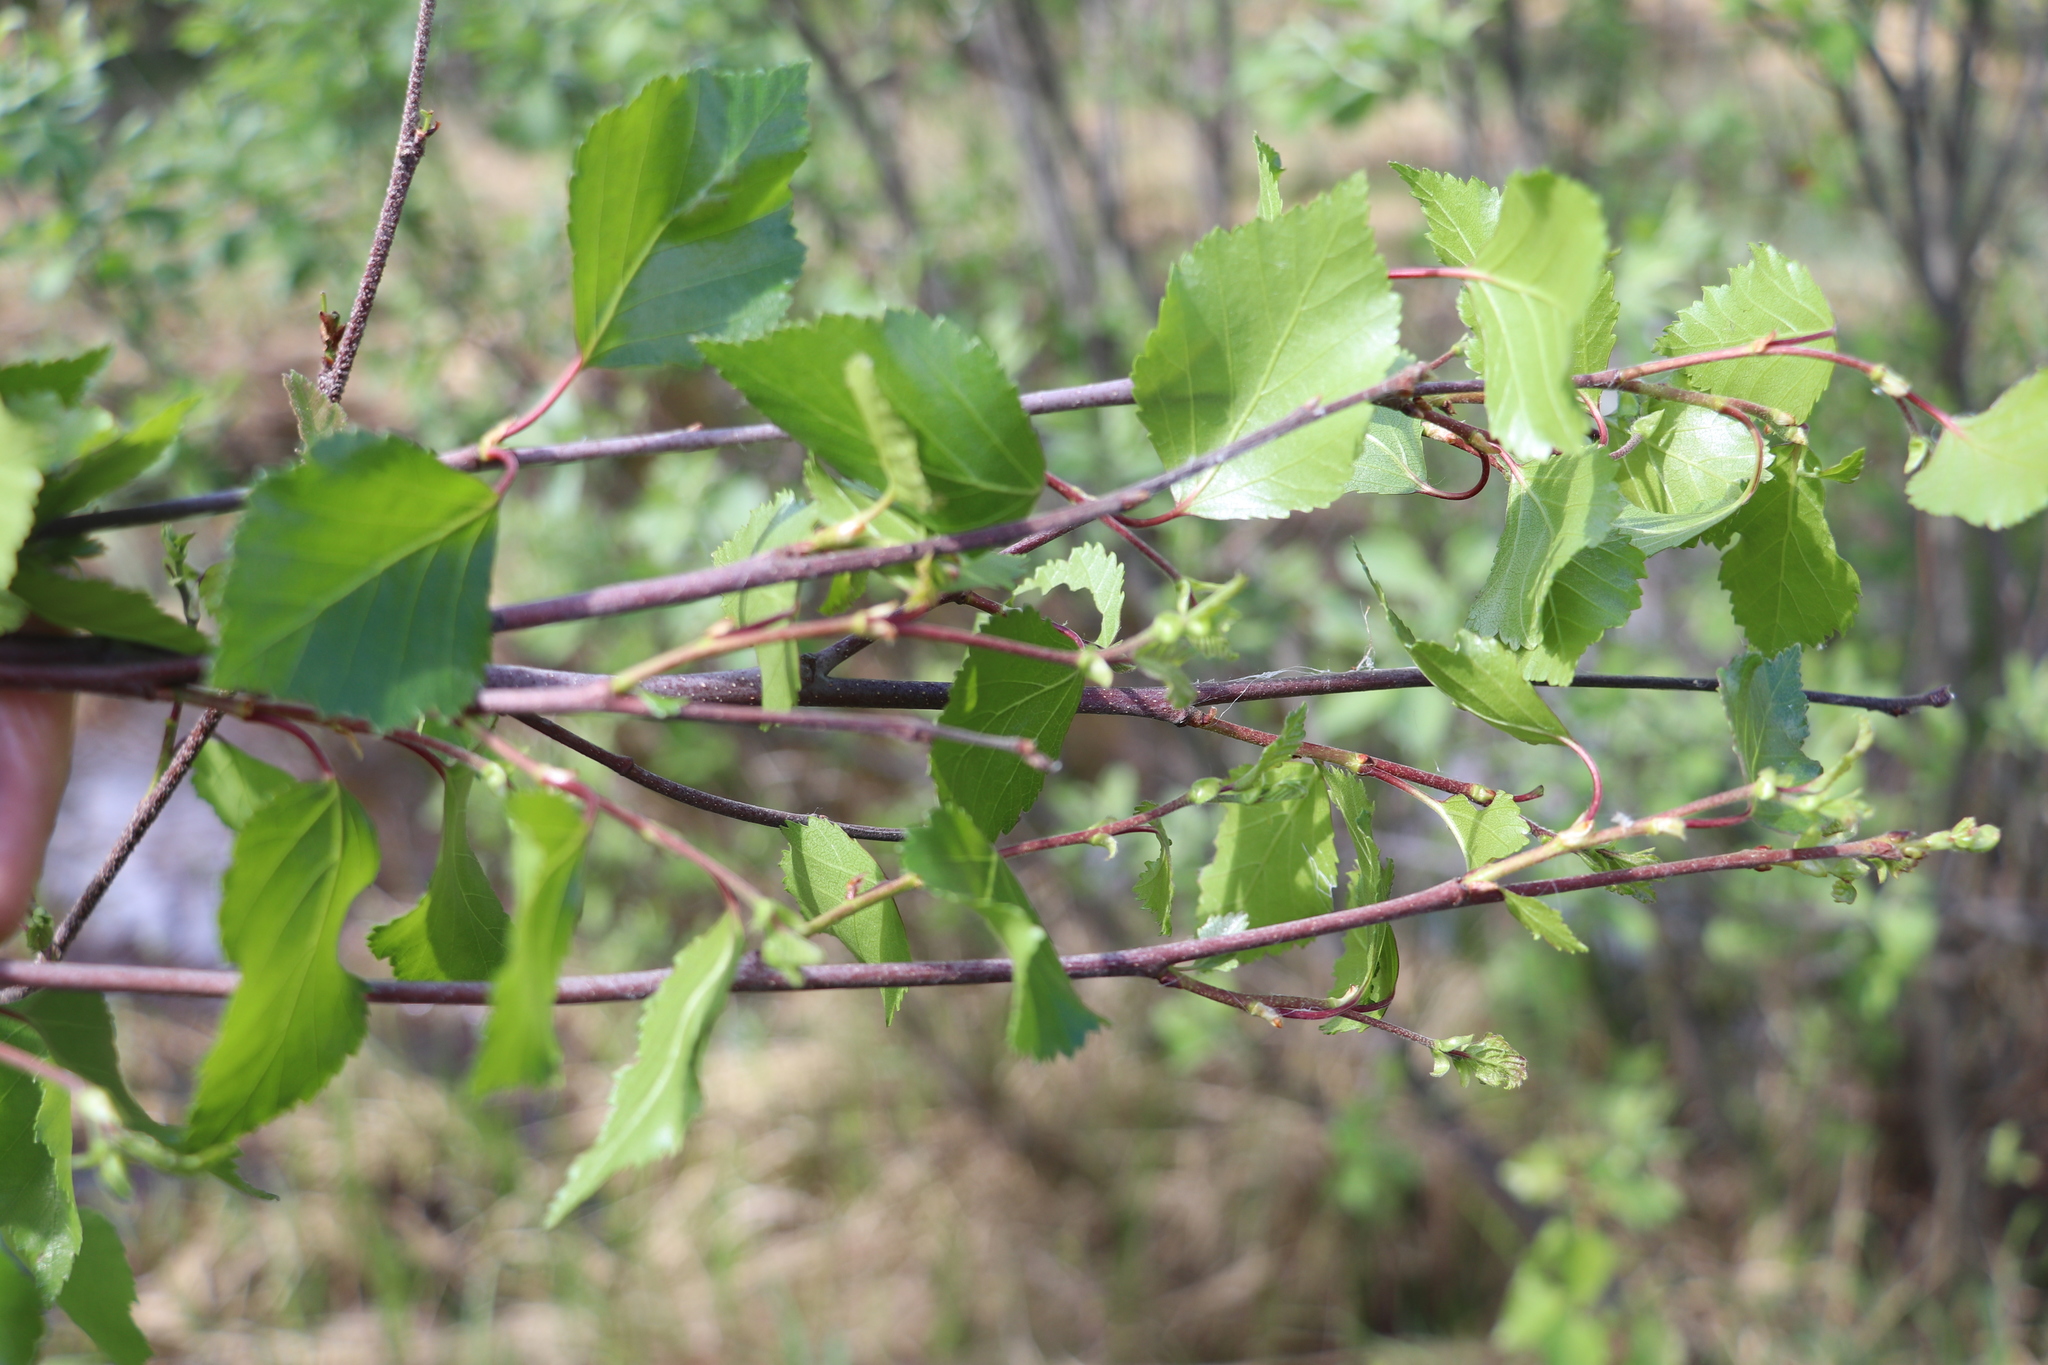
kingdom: Plantae
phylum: Tracheophyta
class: Magnoliopsida
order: Fagales
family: Betulaceae
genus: Betula
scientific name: Betula pubescens
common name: Downy birch
